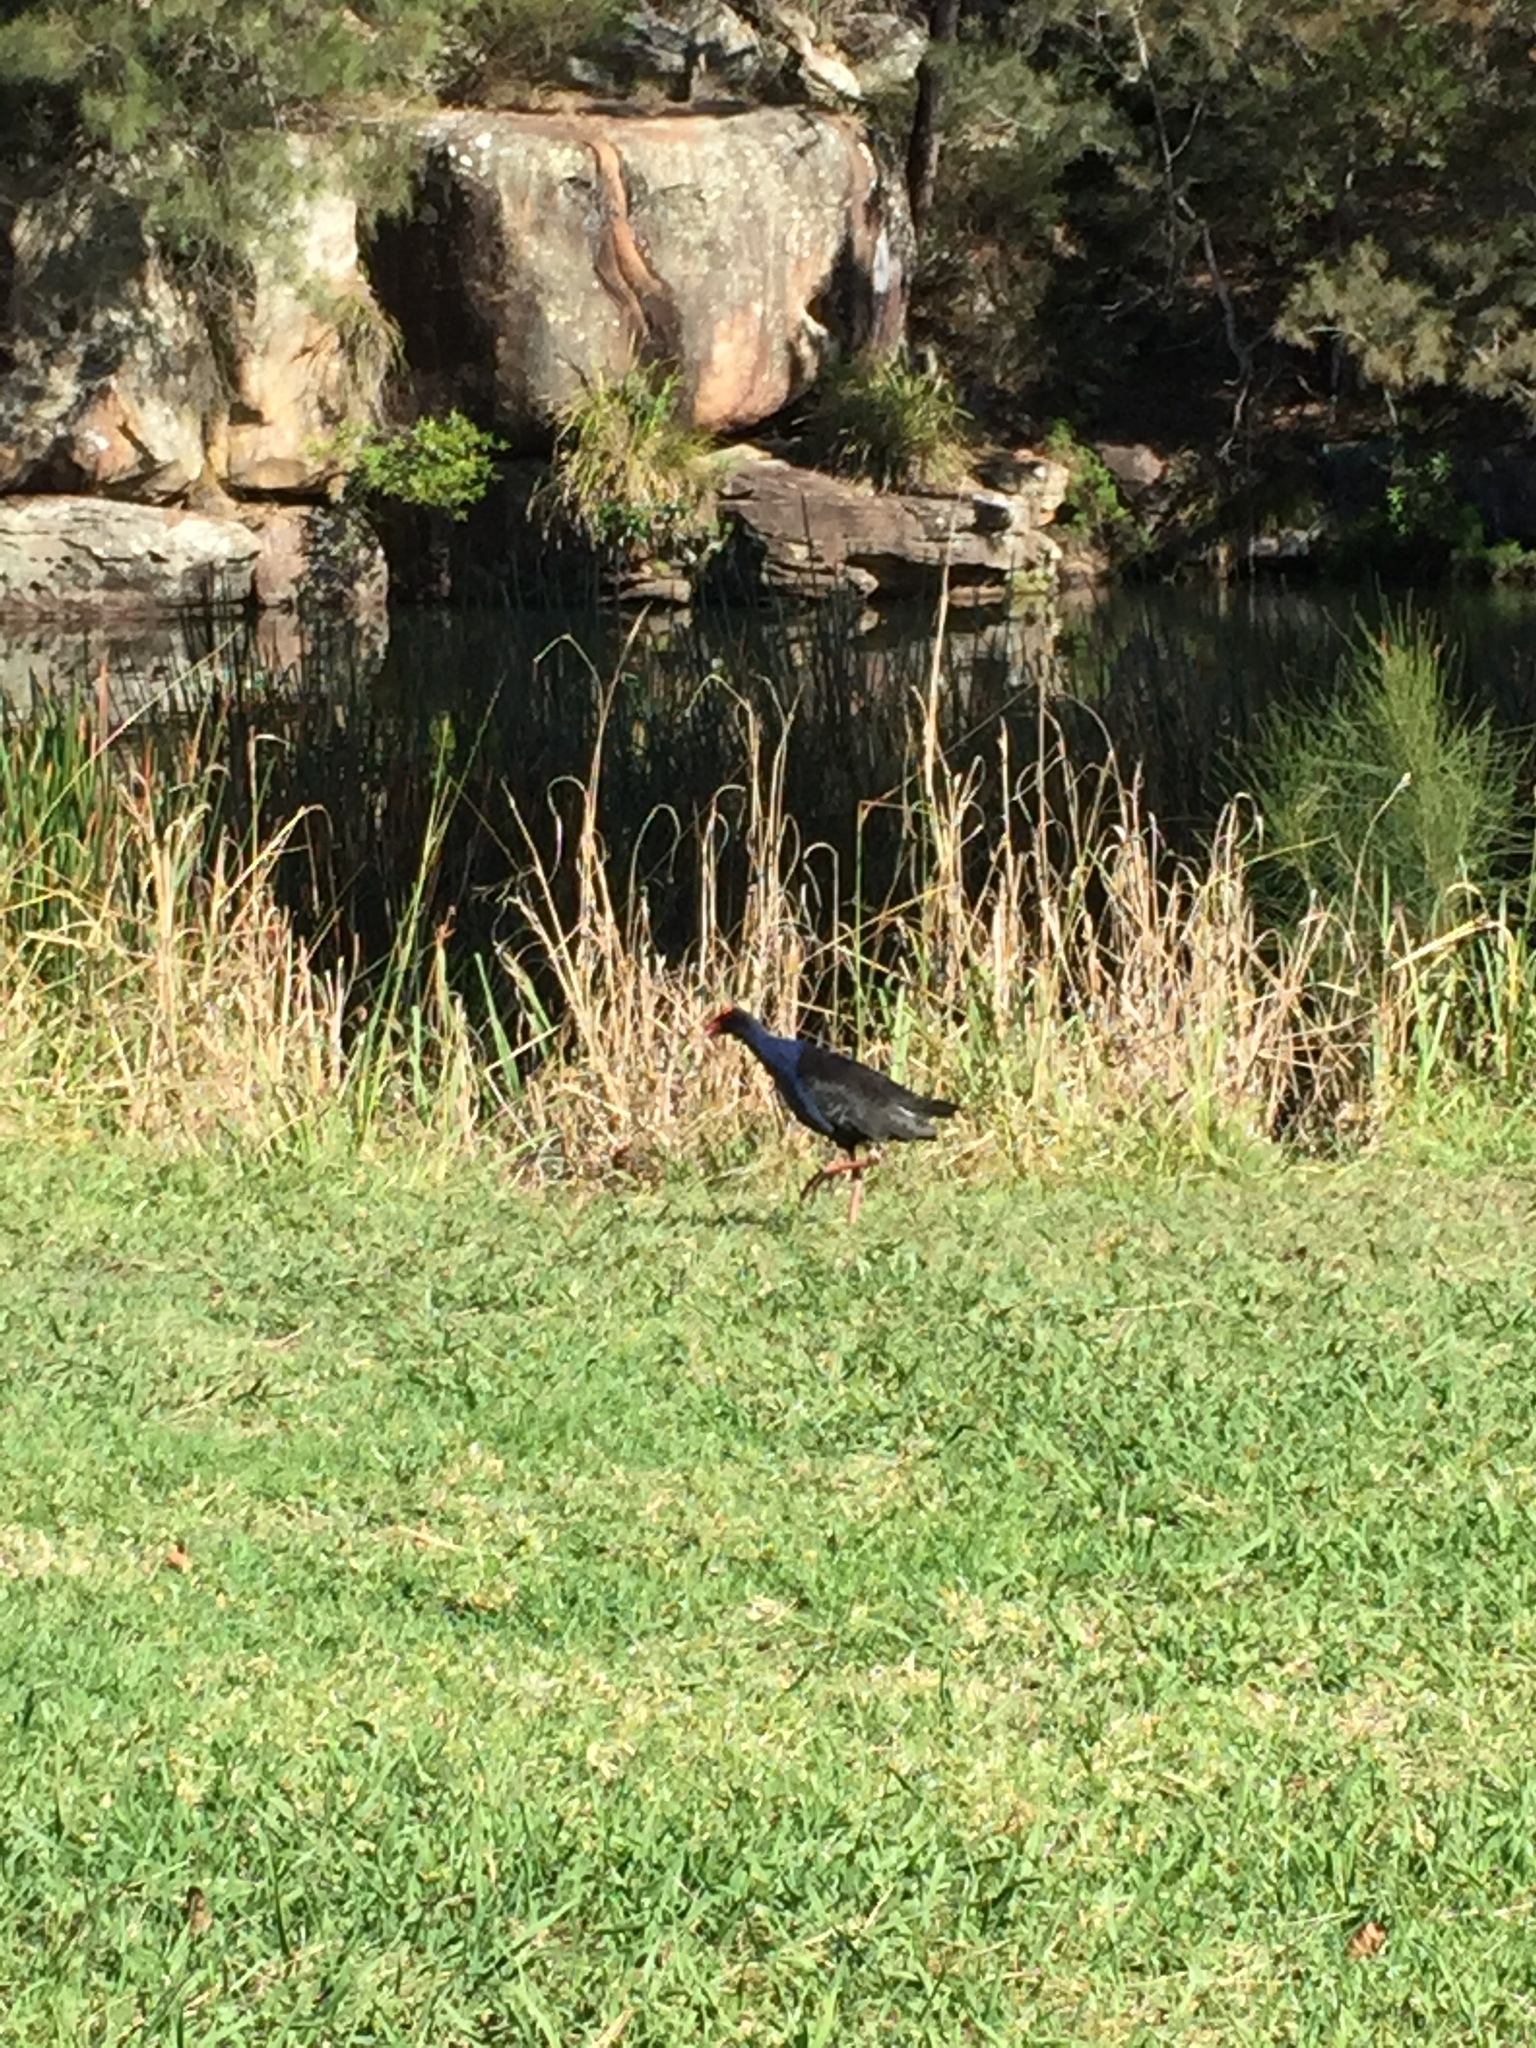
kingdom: Animalia
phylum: Chordata
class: Aves
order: Gruiformes
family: Rallidae
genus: Porphyrio
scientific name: Porphyrio melanotus
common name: Australasian swamphen
